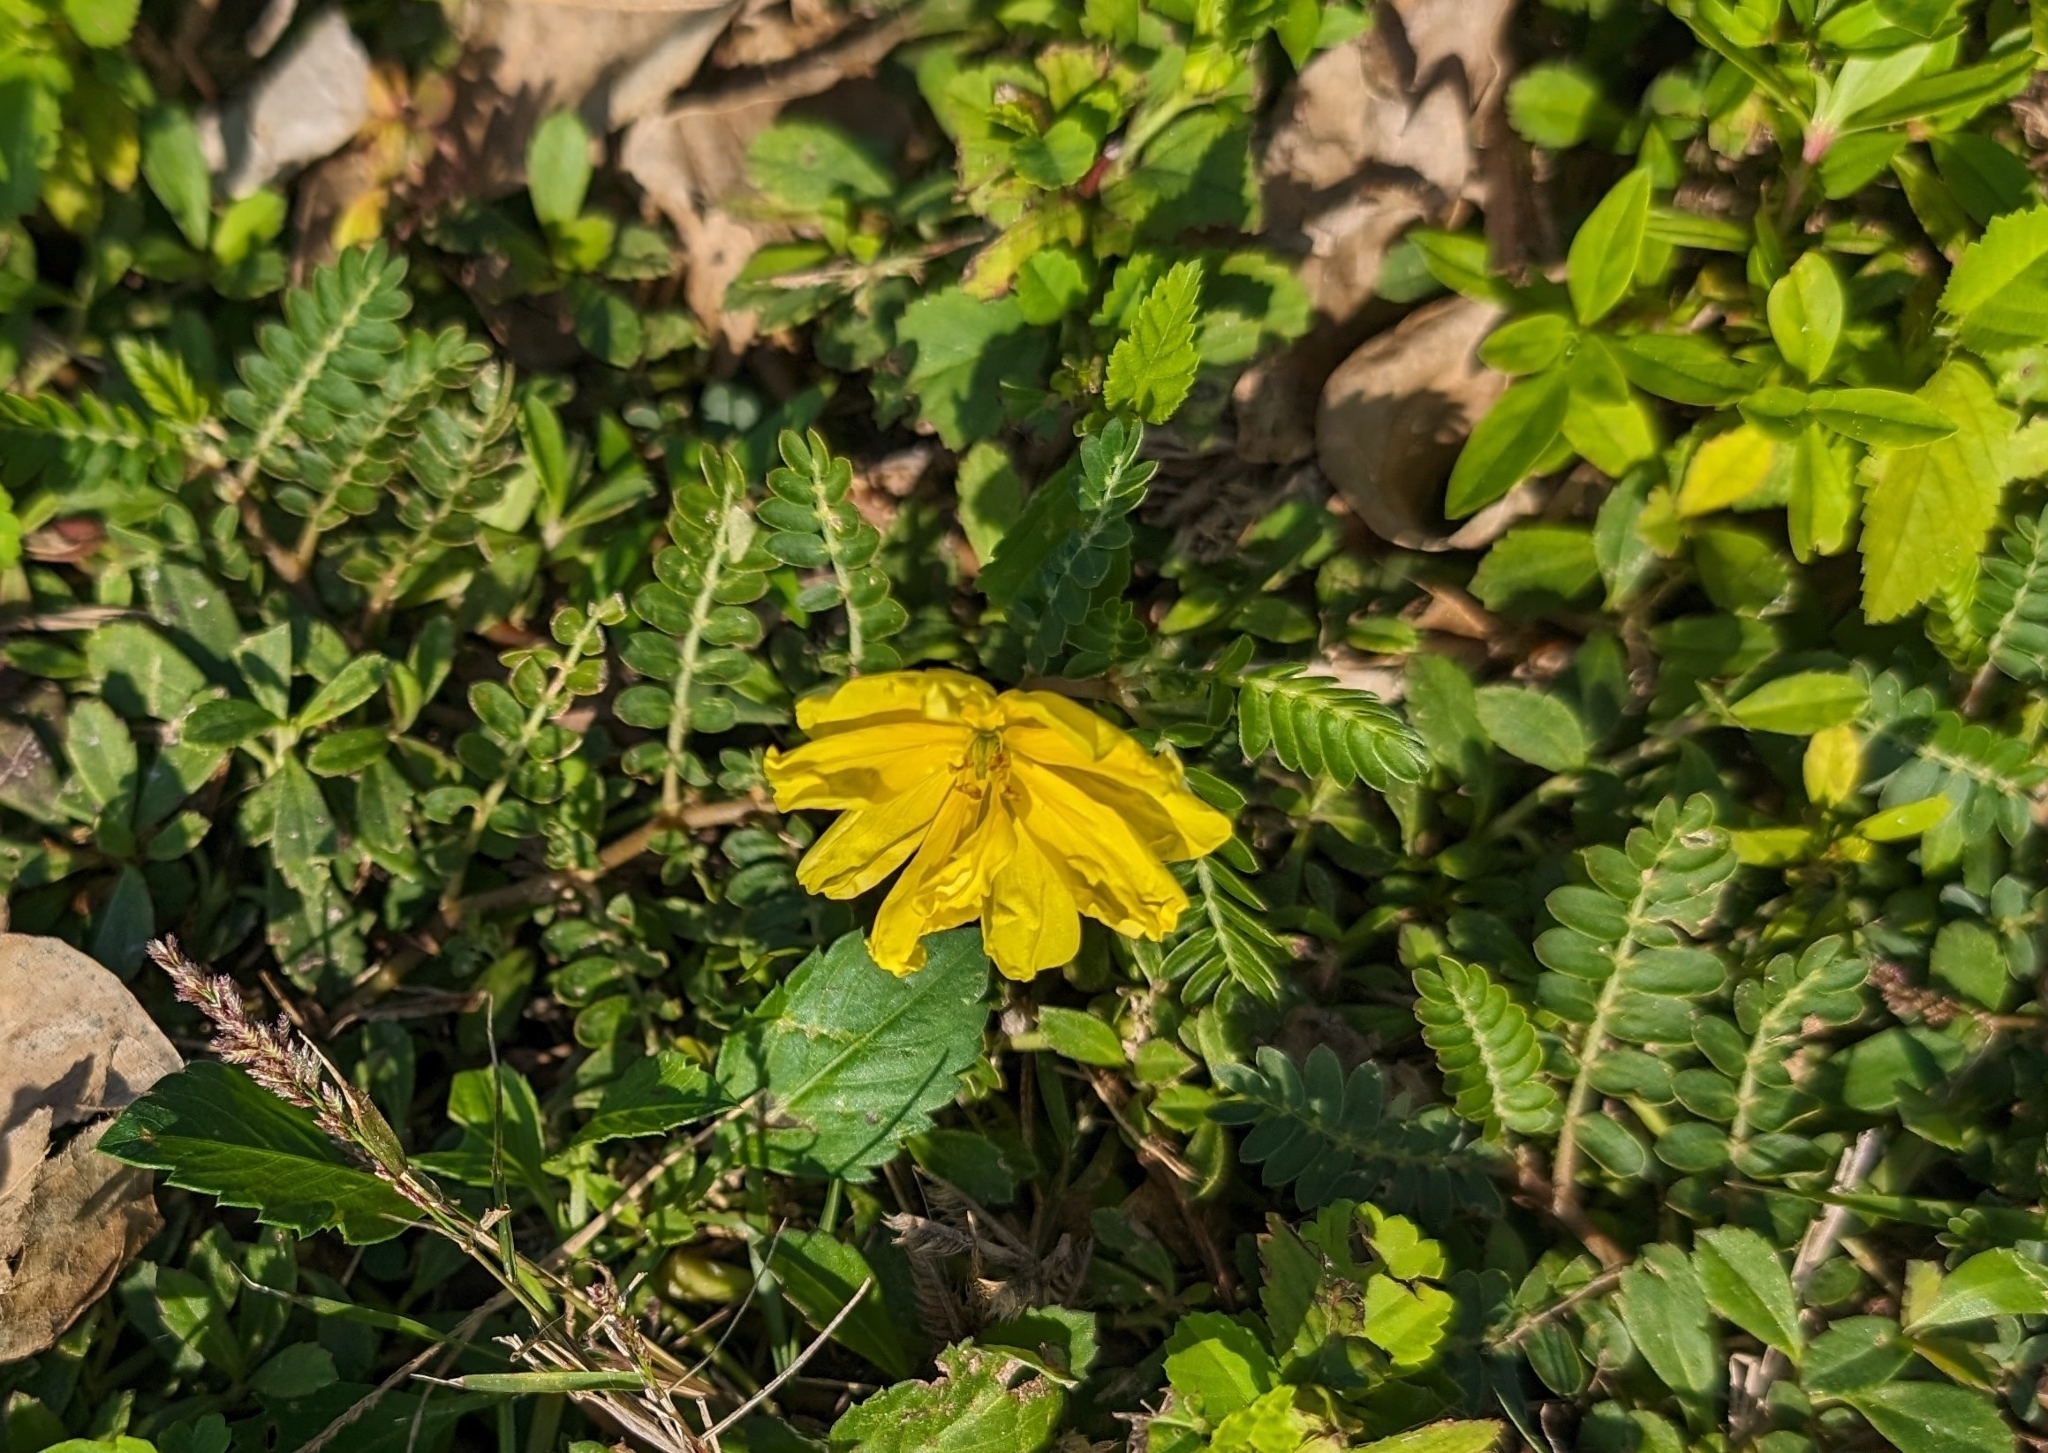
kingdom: Plantae
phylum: Tracheophyta
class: Magnoliopsida
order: Zygophyllales
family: Zygophyllaceae
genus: Tribulus
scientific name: Tribulus cistoides
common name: Jamaican feverplant
